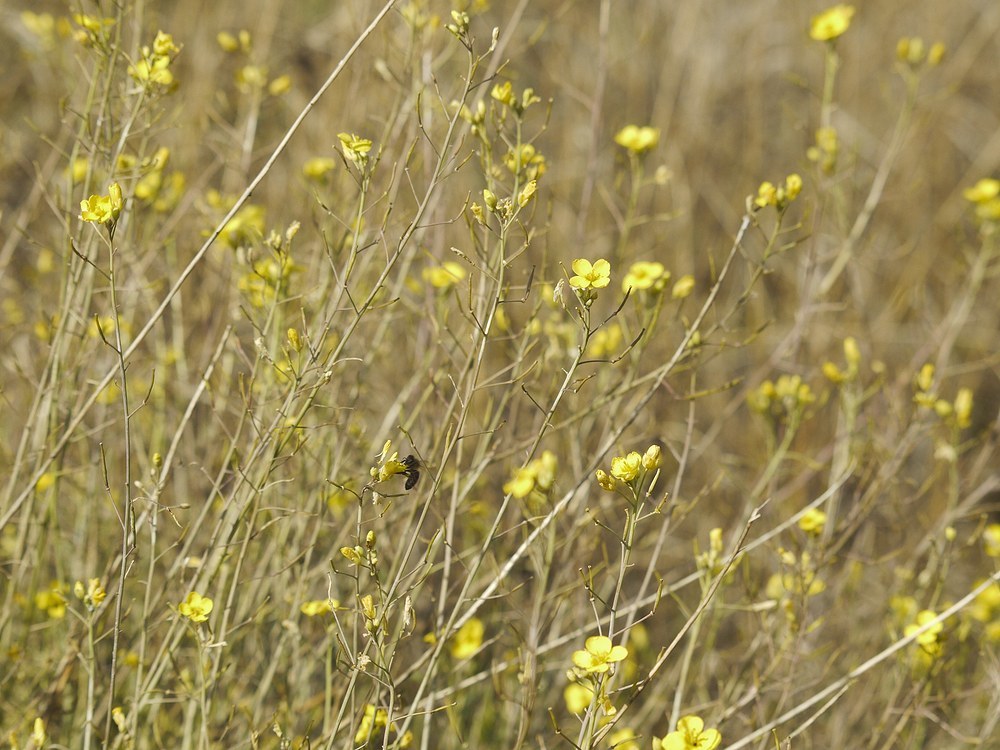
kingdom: Plantae
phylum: Tracheophyta
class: Magnoliopsida
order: Brassicales
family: Brassicaceae
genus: Diplotaxis
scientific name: Diplotaxis tenuifolia
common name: Perennial wall-rocket
